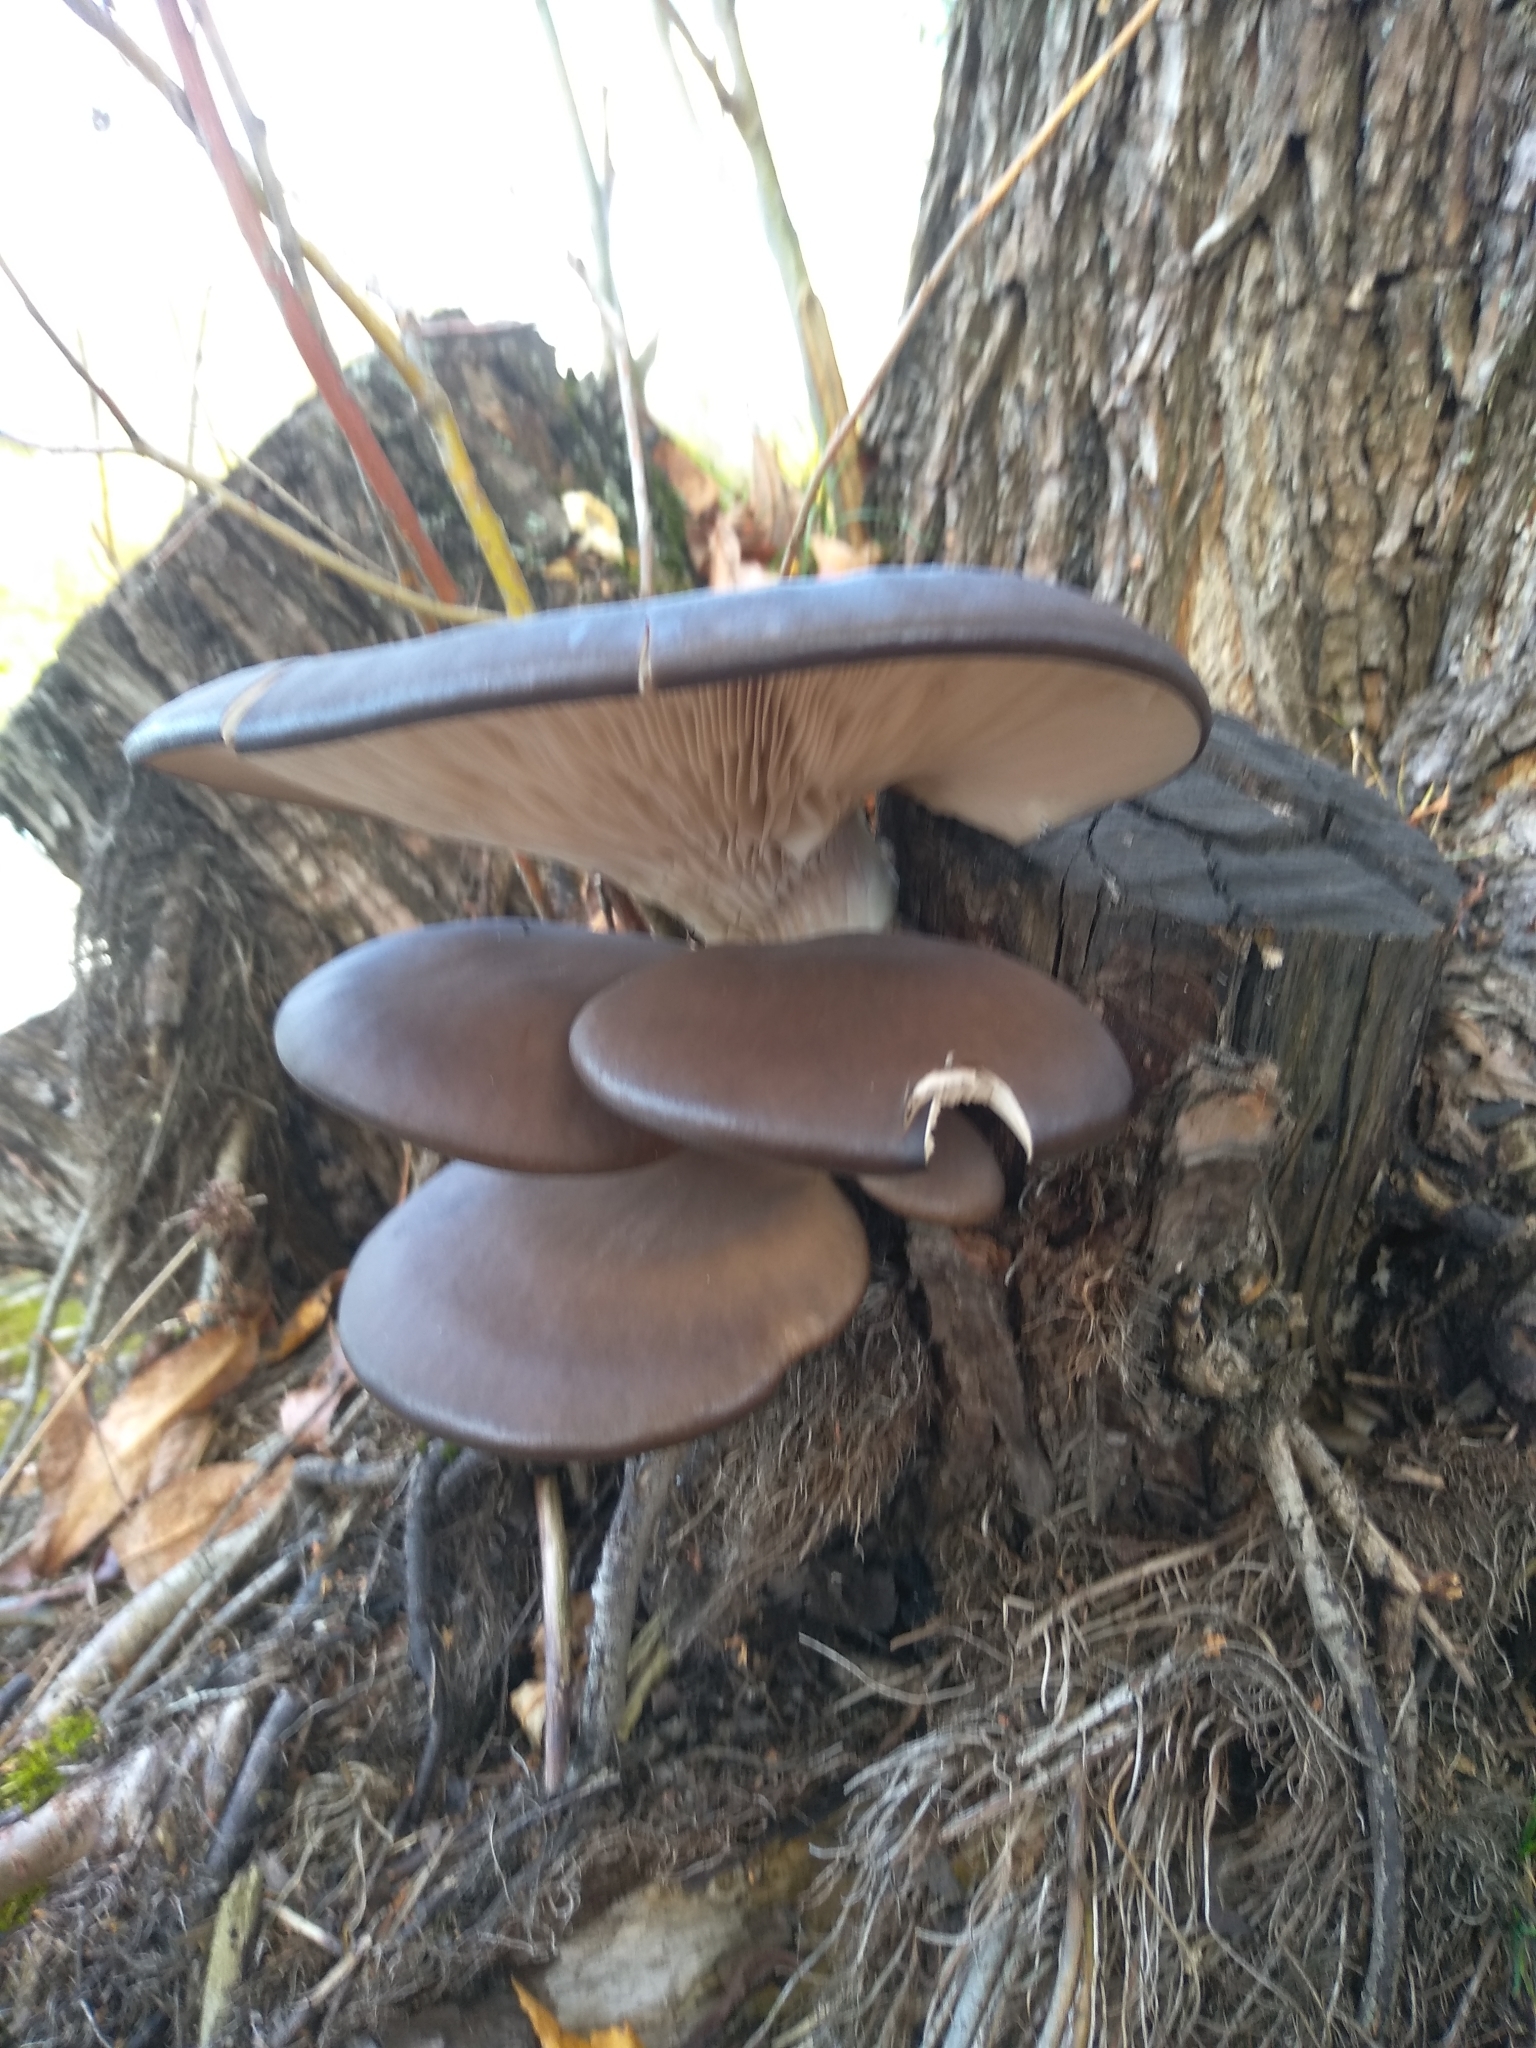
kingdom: Fungi
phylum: Basidiomycota
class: Agaricomycetes
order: Agaricales
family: Pleurotaceae
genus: Pleurotus
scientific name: Pleurotus ostreatus
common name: Oyster mushroom
